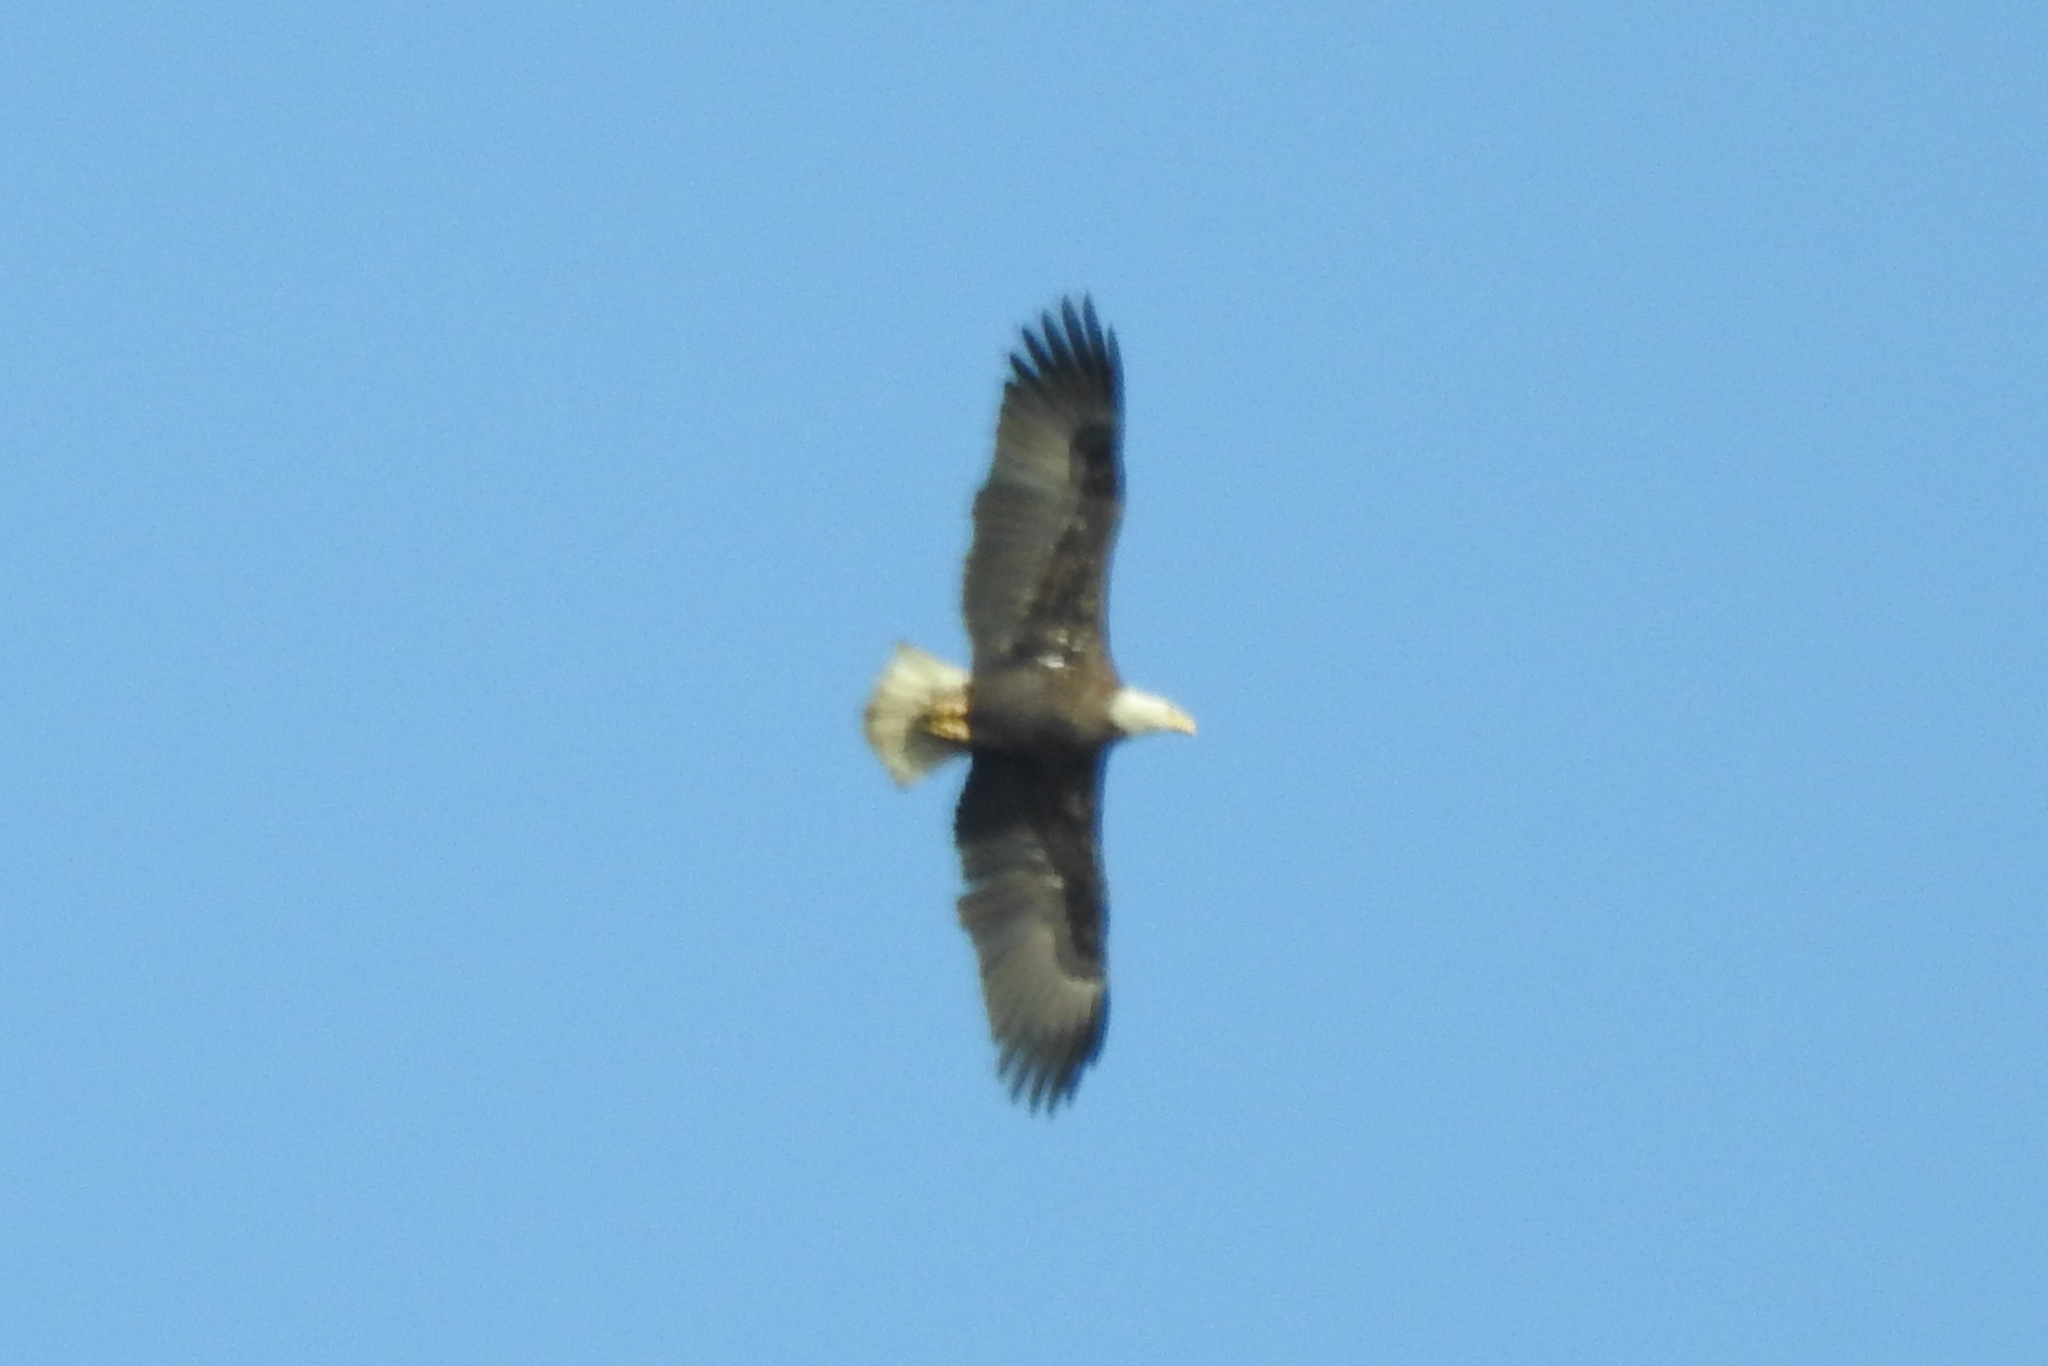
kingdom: Animalia
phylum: Chordata
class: Aves
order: Accipitriformes
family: Accipitridae
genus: Haliaeetus
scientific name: Haliaeetus leucocephalus
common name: Bald eagle
